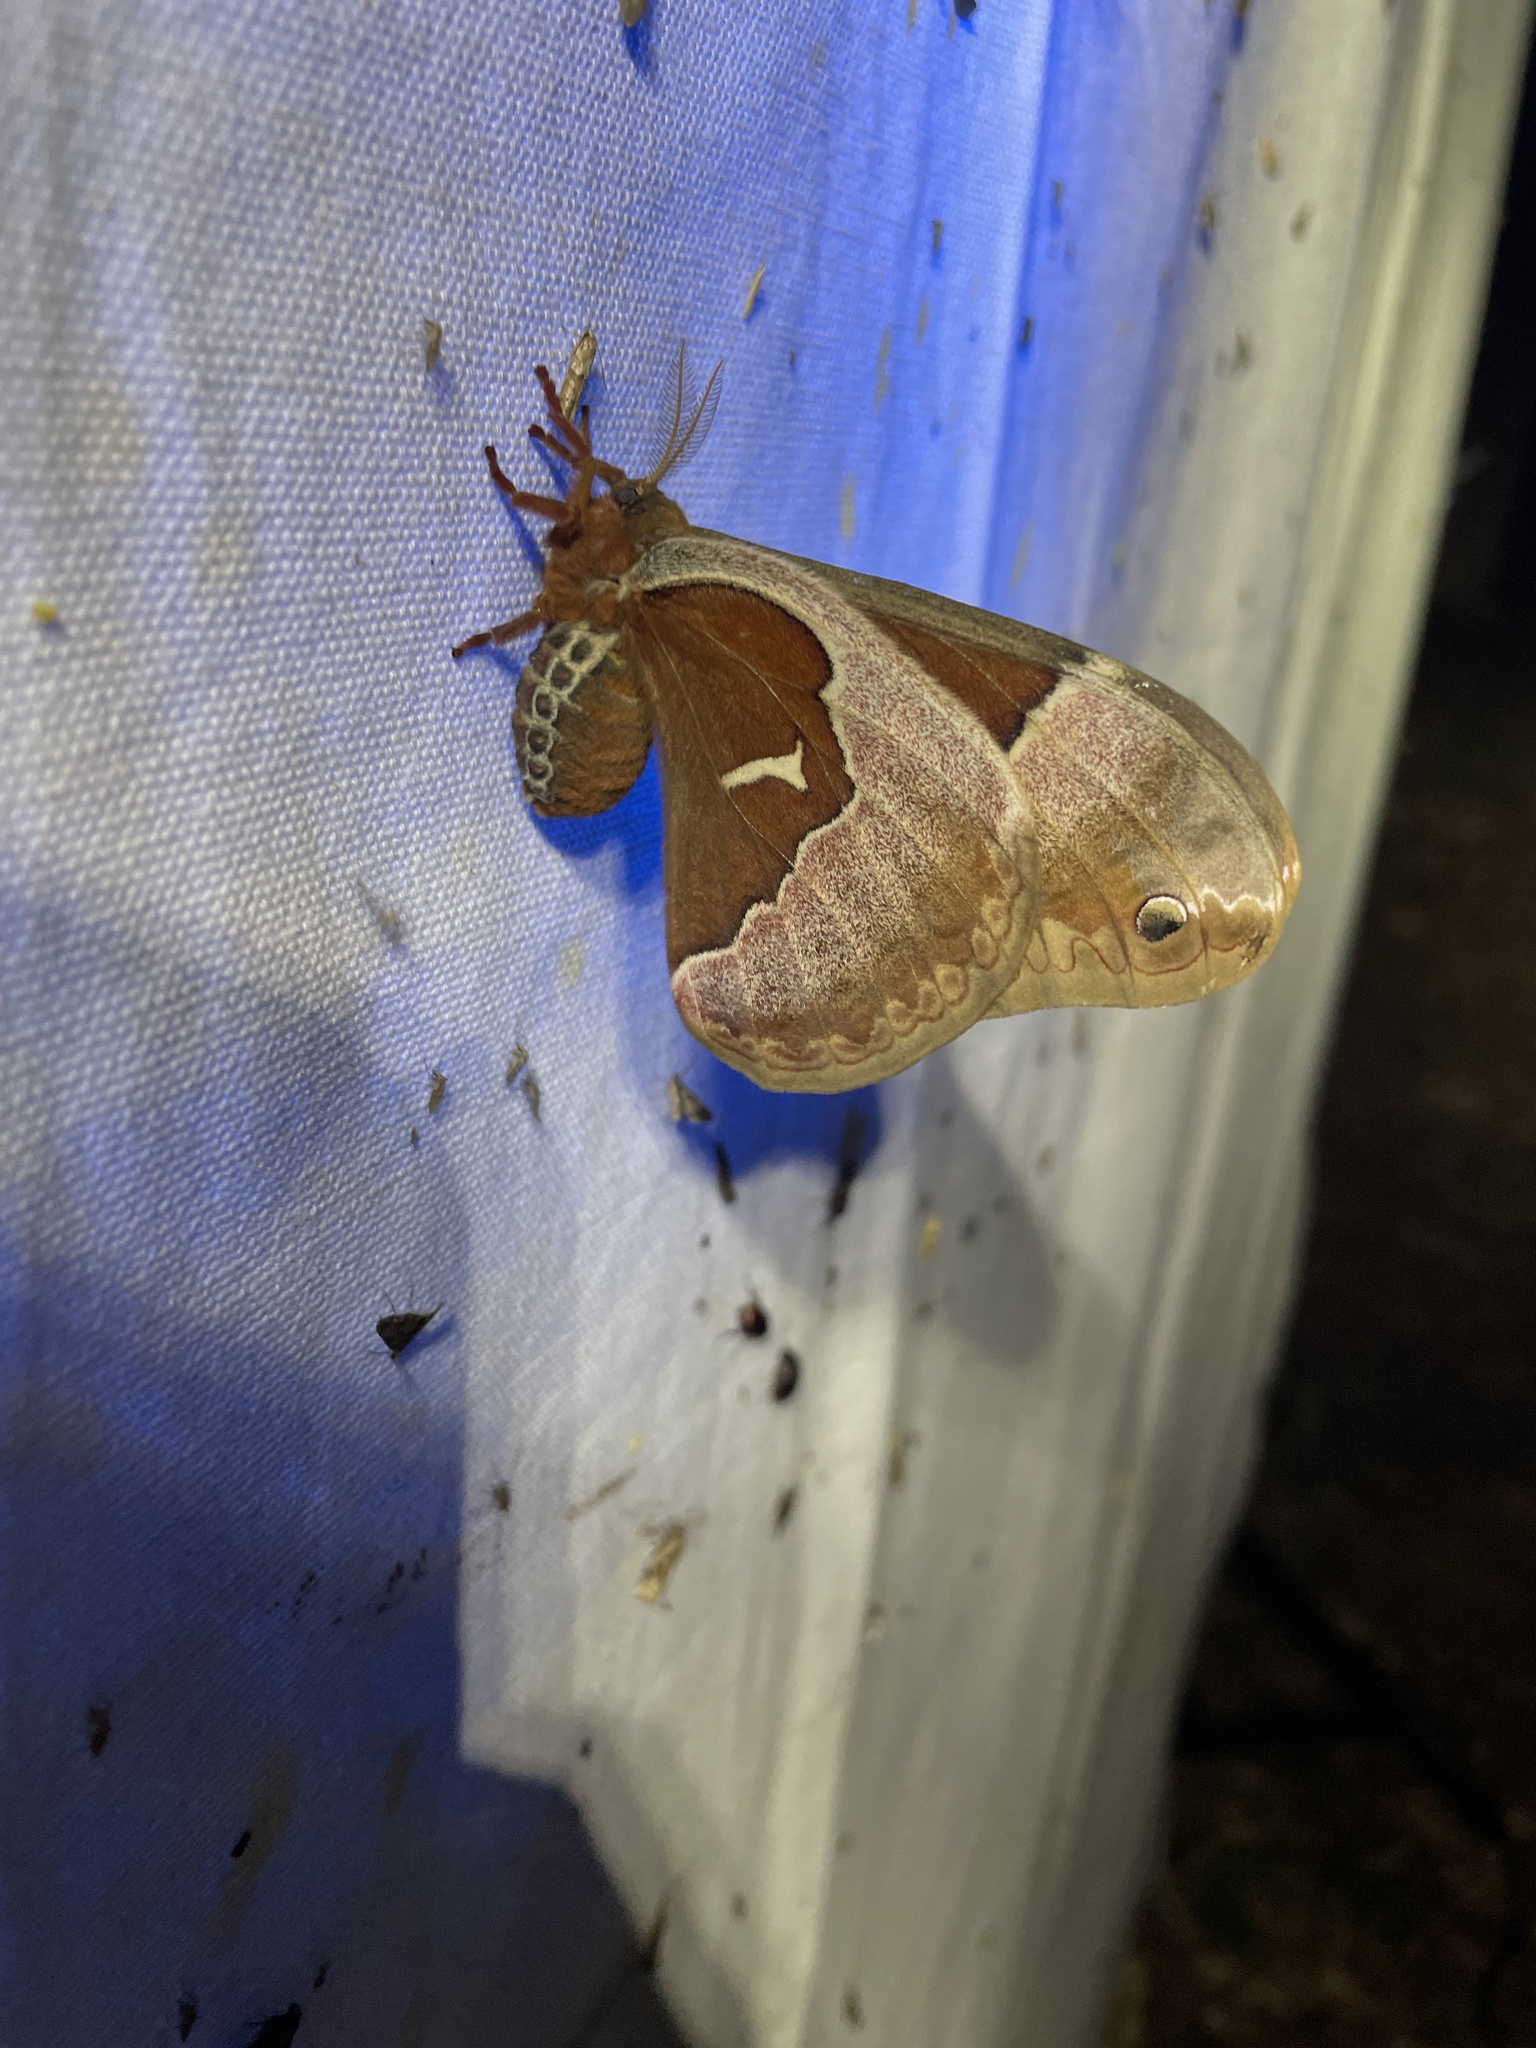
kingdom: Animalia
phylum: Arthropoda
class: Insecta
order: Lepidoptera
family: Saturniidae
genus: Callosamia
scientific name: Callosamia angulifera
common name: Tulip tree silkmoth
